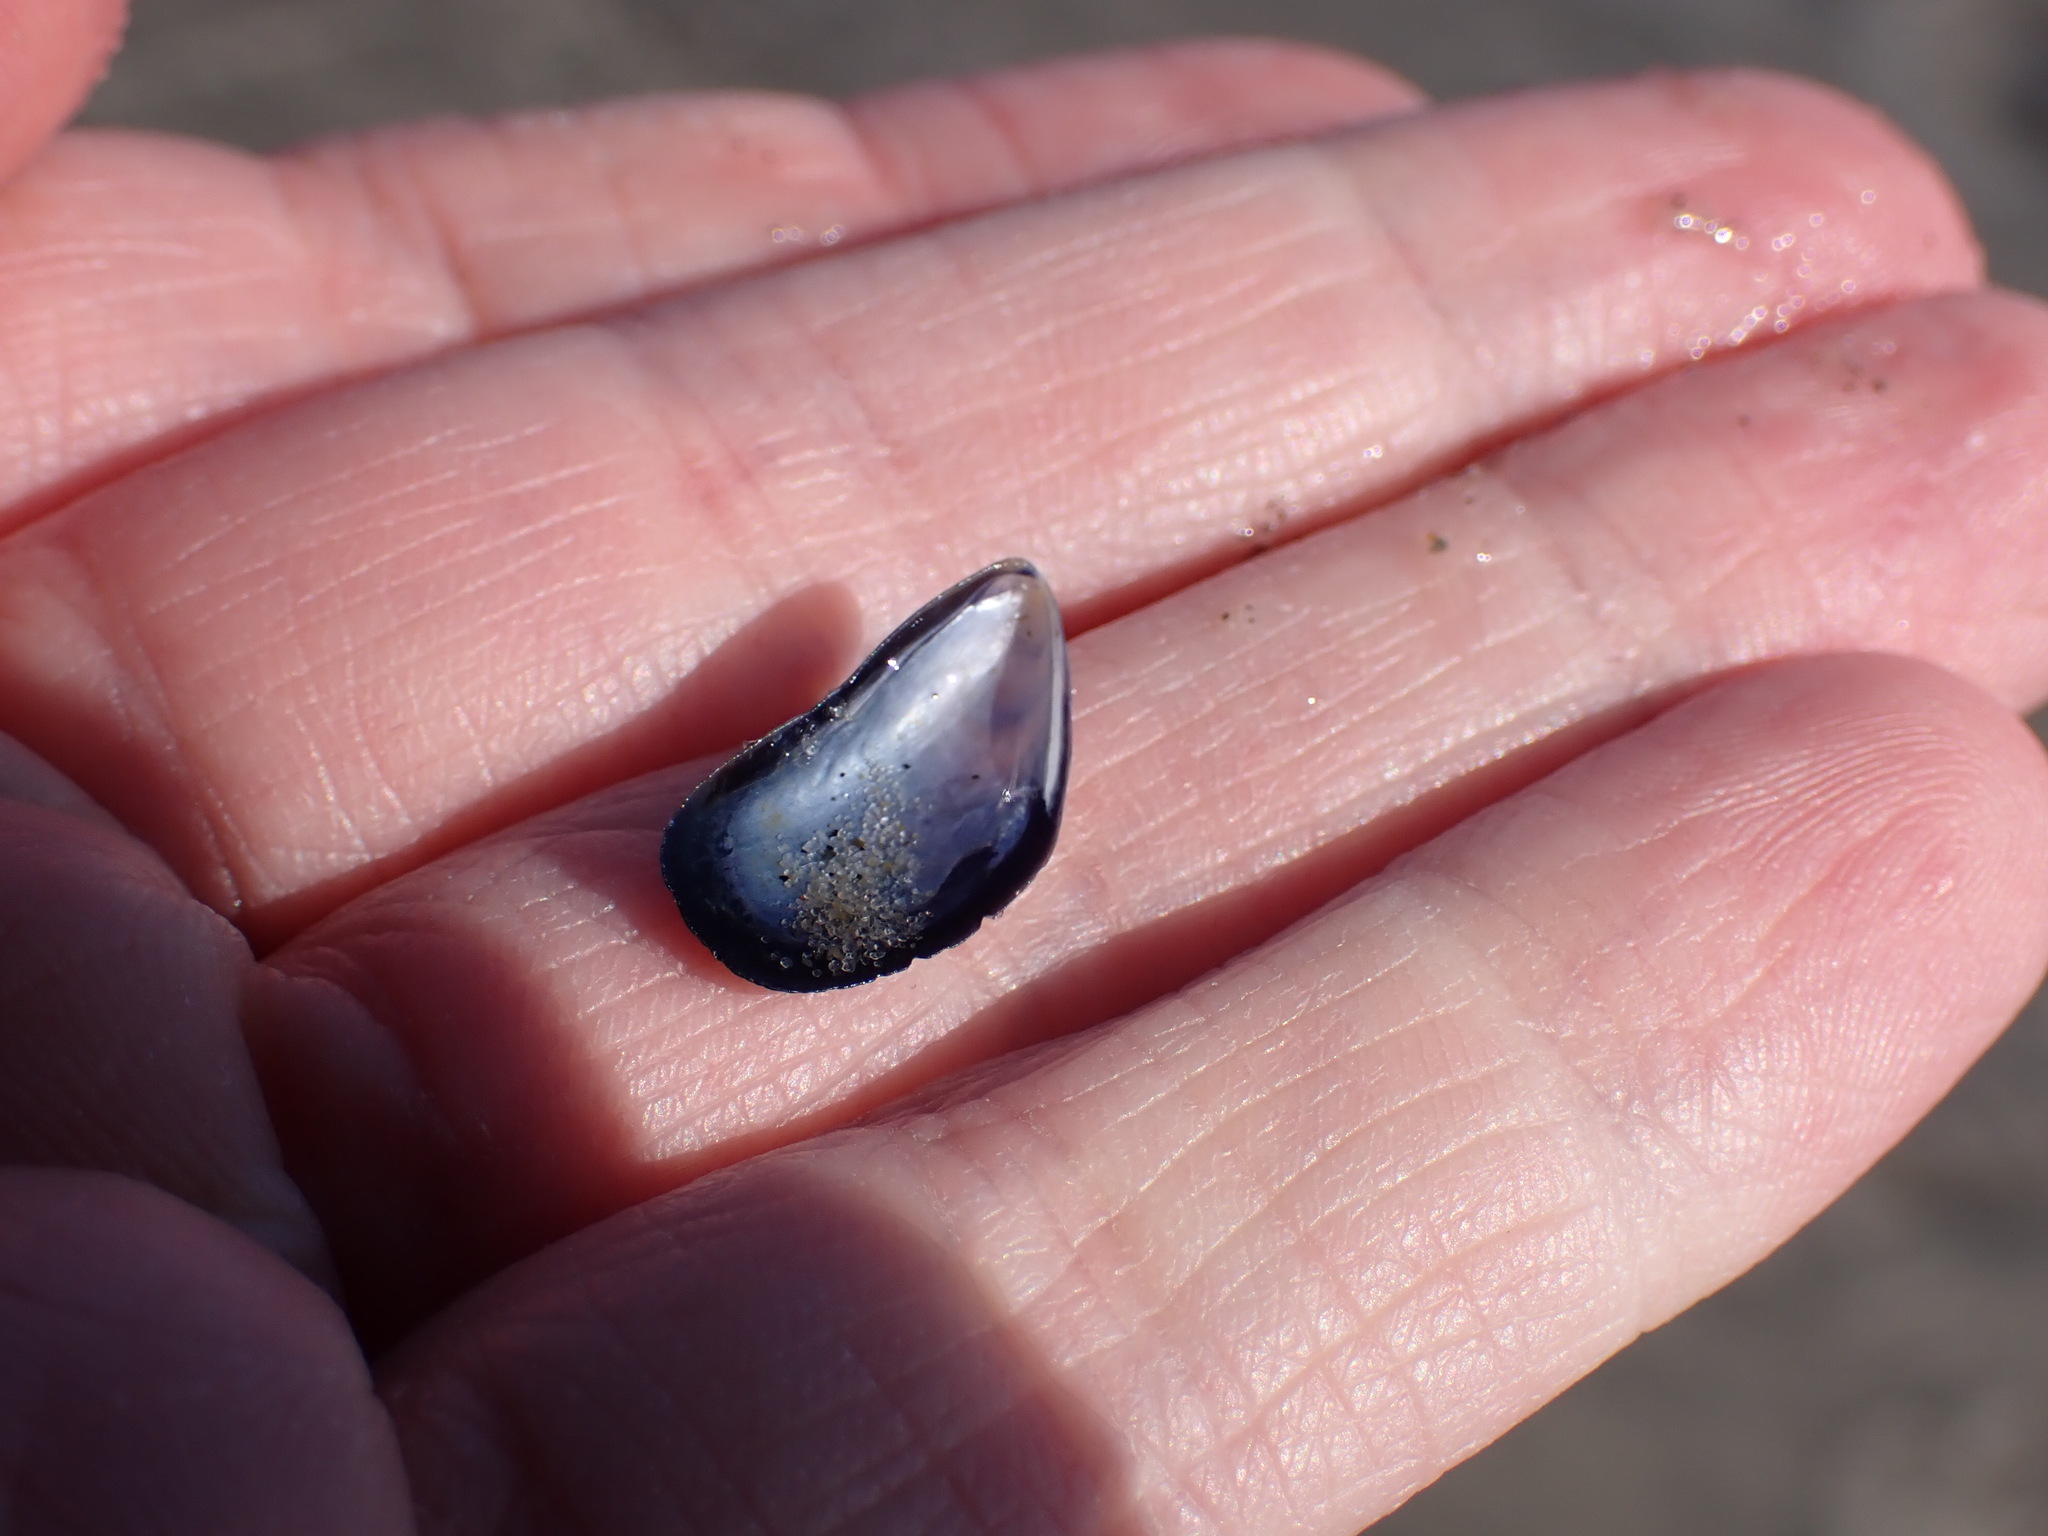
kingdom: Animalia
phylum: Mollusca
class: Bivalvia
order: Mytilida
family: Mytilidae
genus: Mytilus
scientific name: Mytilus edulis
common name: Blue mussel
